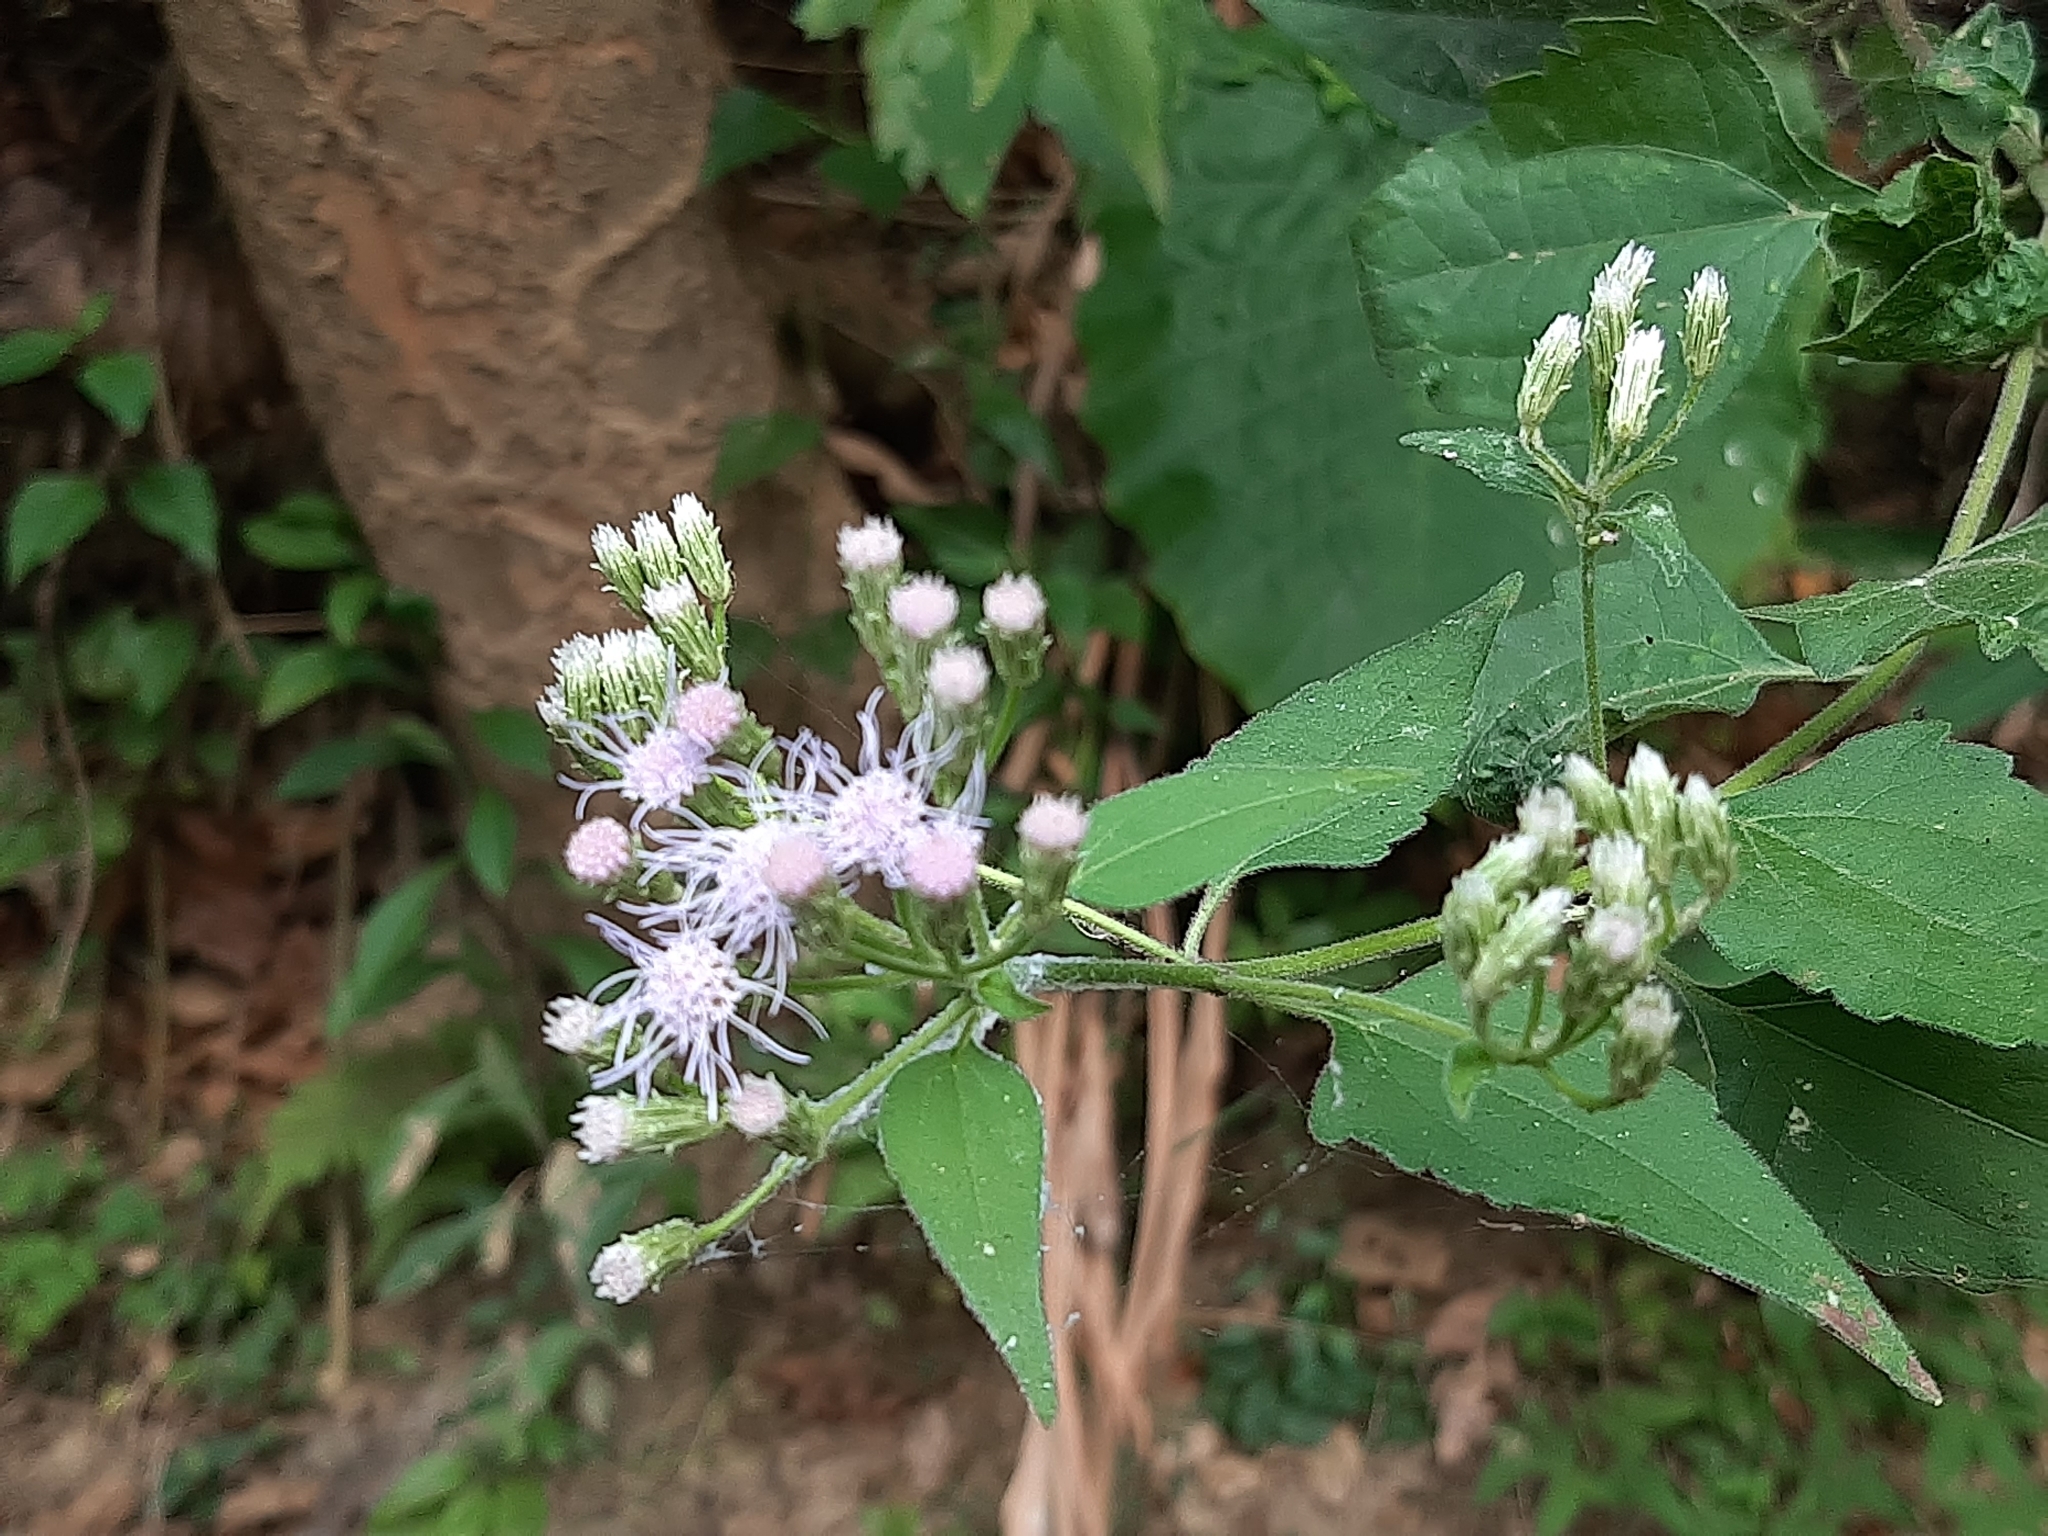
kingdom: Plantae
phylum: Tracheophyta
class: Magnoliopsida
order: Asterales
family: Asteraceae
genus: Chromolaena
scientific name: Chromolaena odorata
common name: Siamweed
